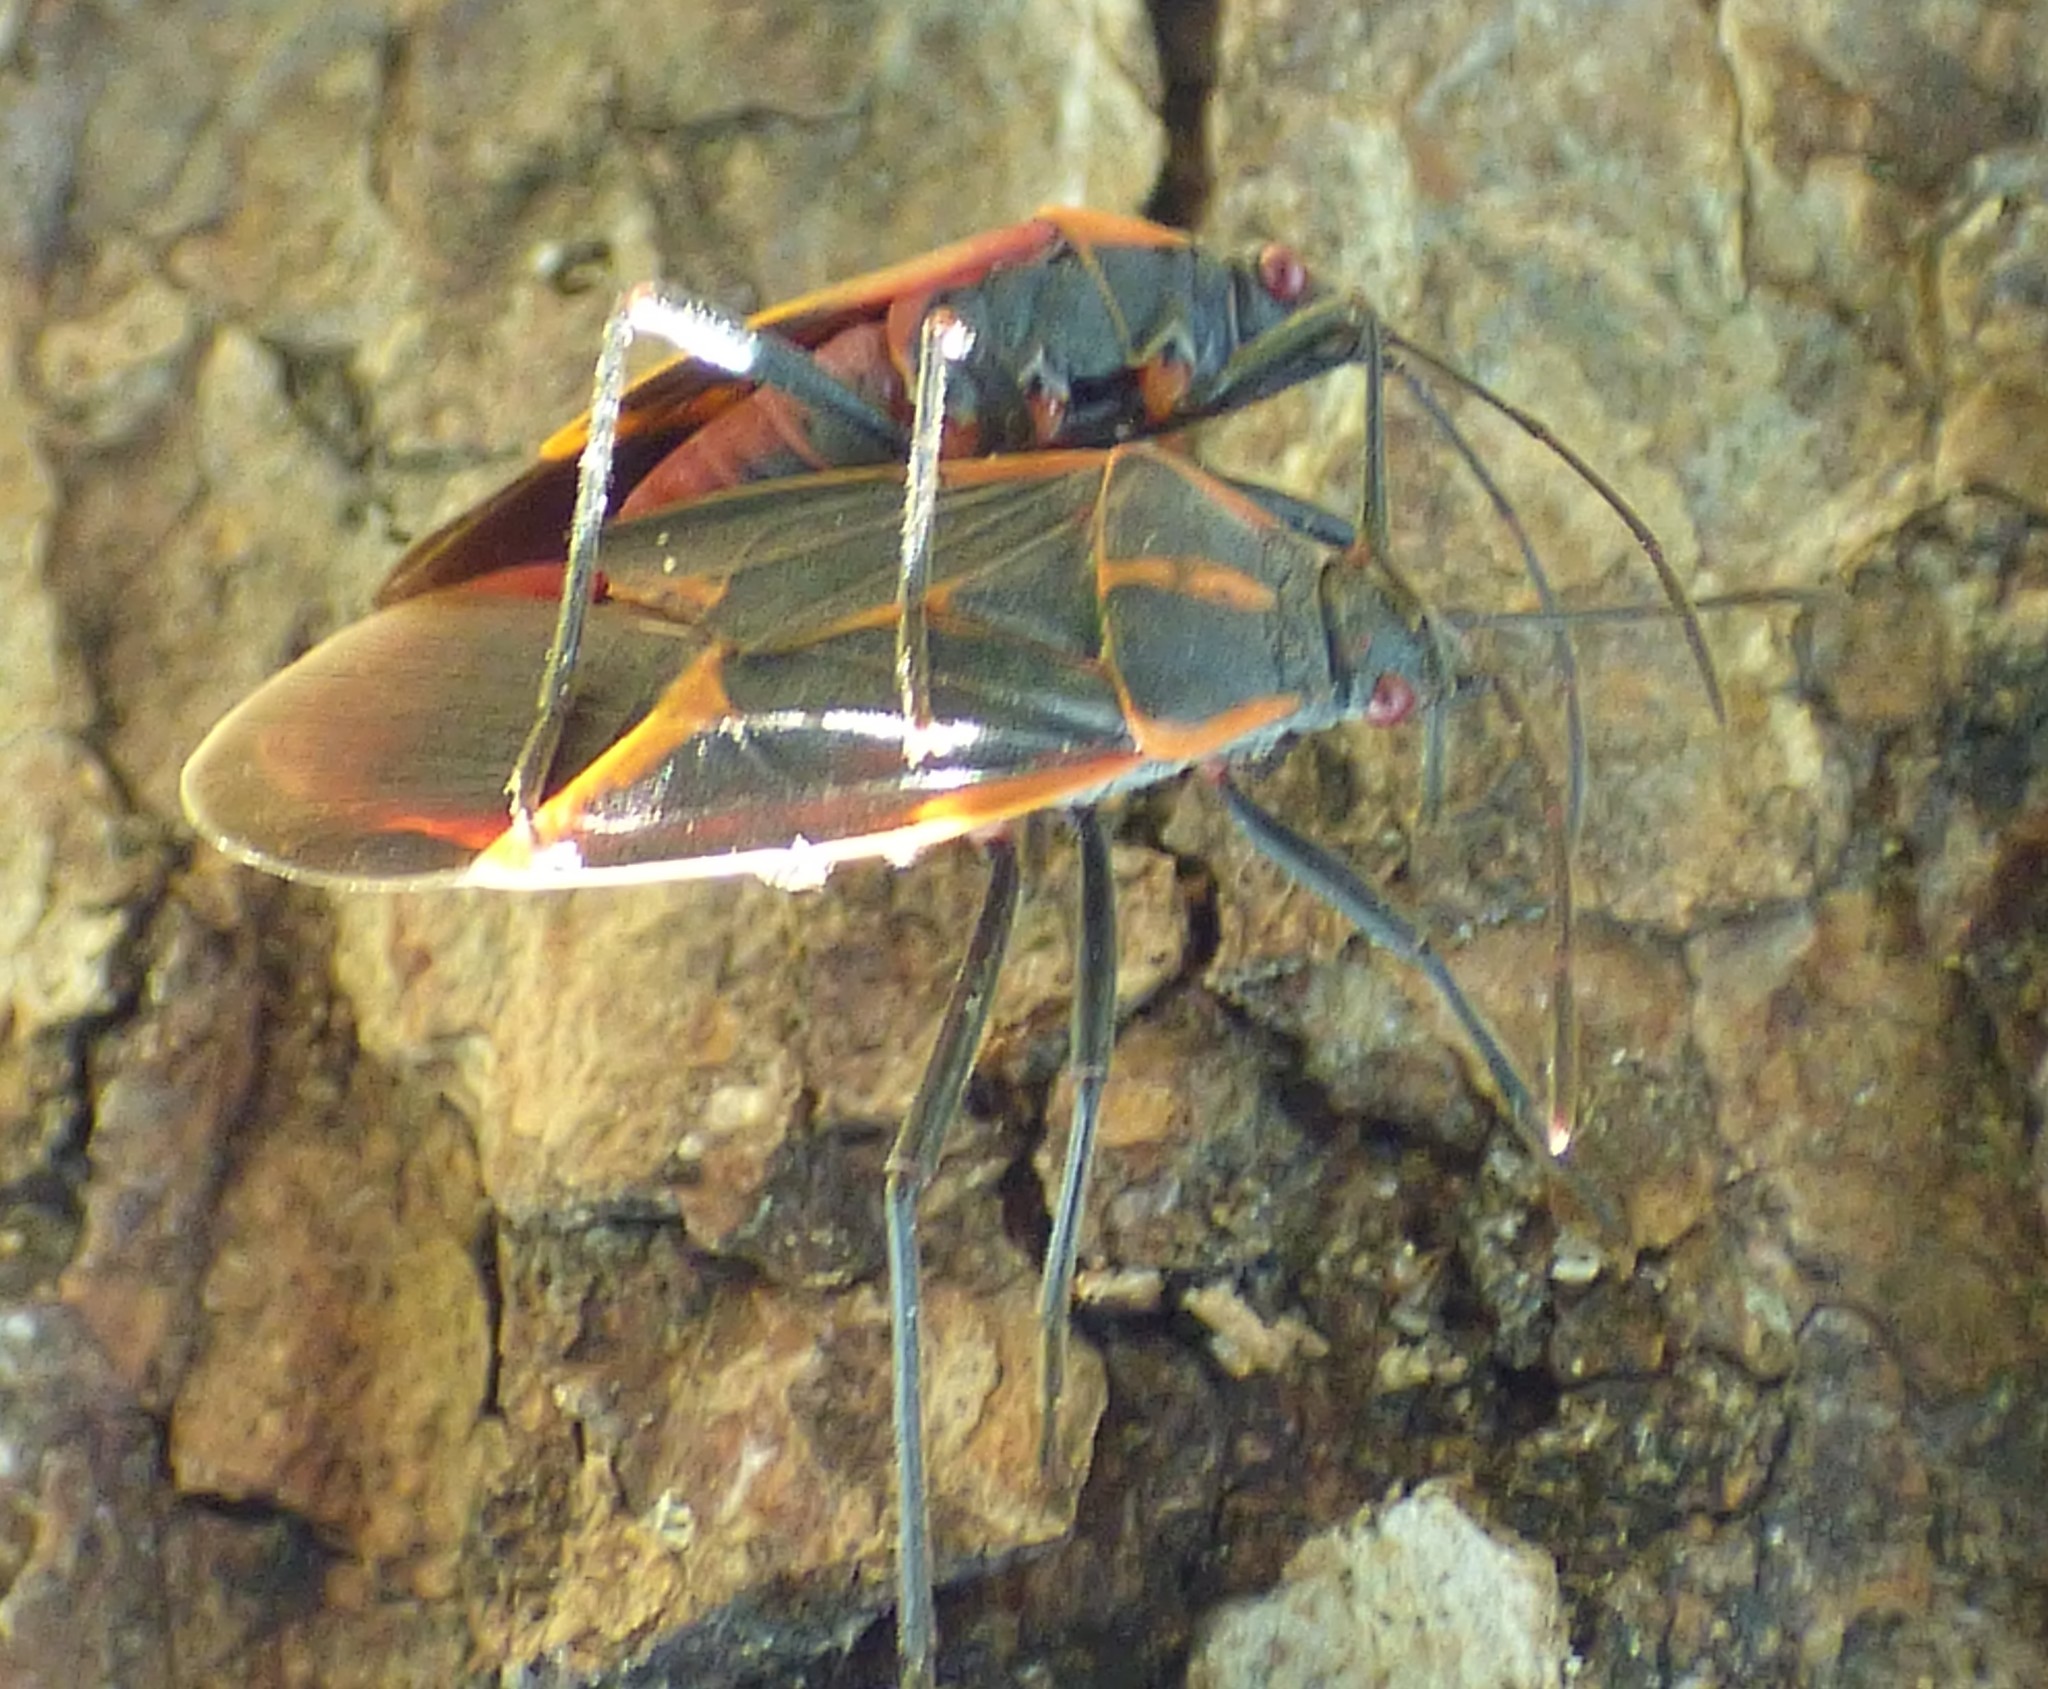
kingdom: Animalia
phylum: Arthropoda
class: Insecta
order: Hemiptera
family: Rhopalidae
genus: Boisea
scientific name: Boisea trivittata
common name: Boxelder bug
